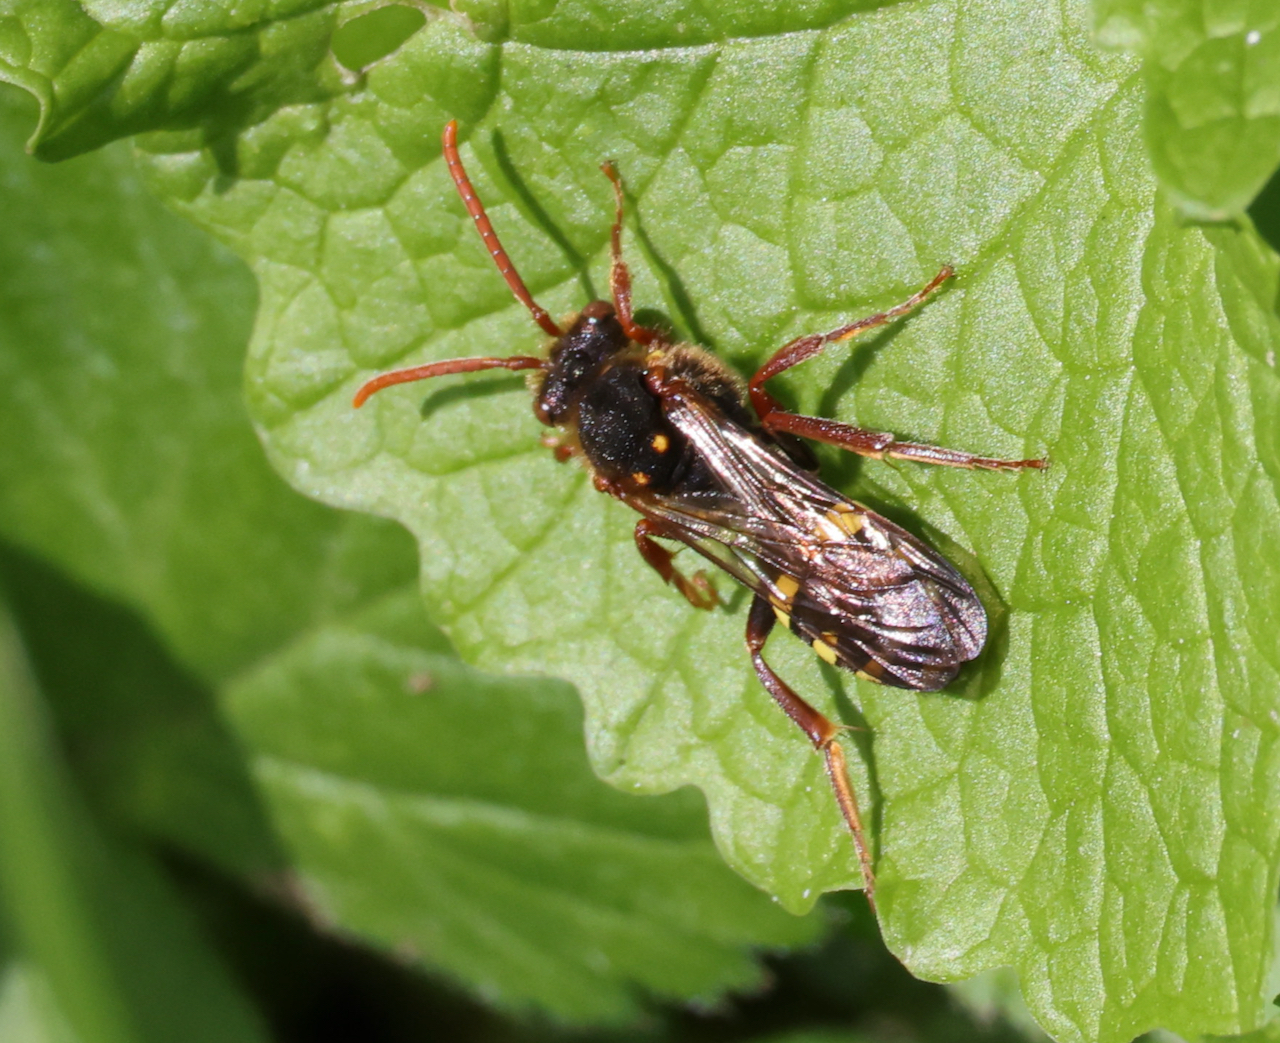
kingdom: Animalia
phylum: Arthropoda
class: Insecta
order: Hymenoptera
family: Apidae
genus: Nomada
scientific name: Nomada marshamella
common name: Marsham's nomad bee
